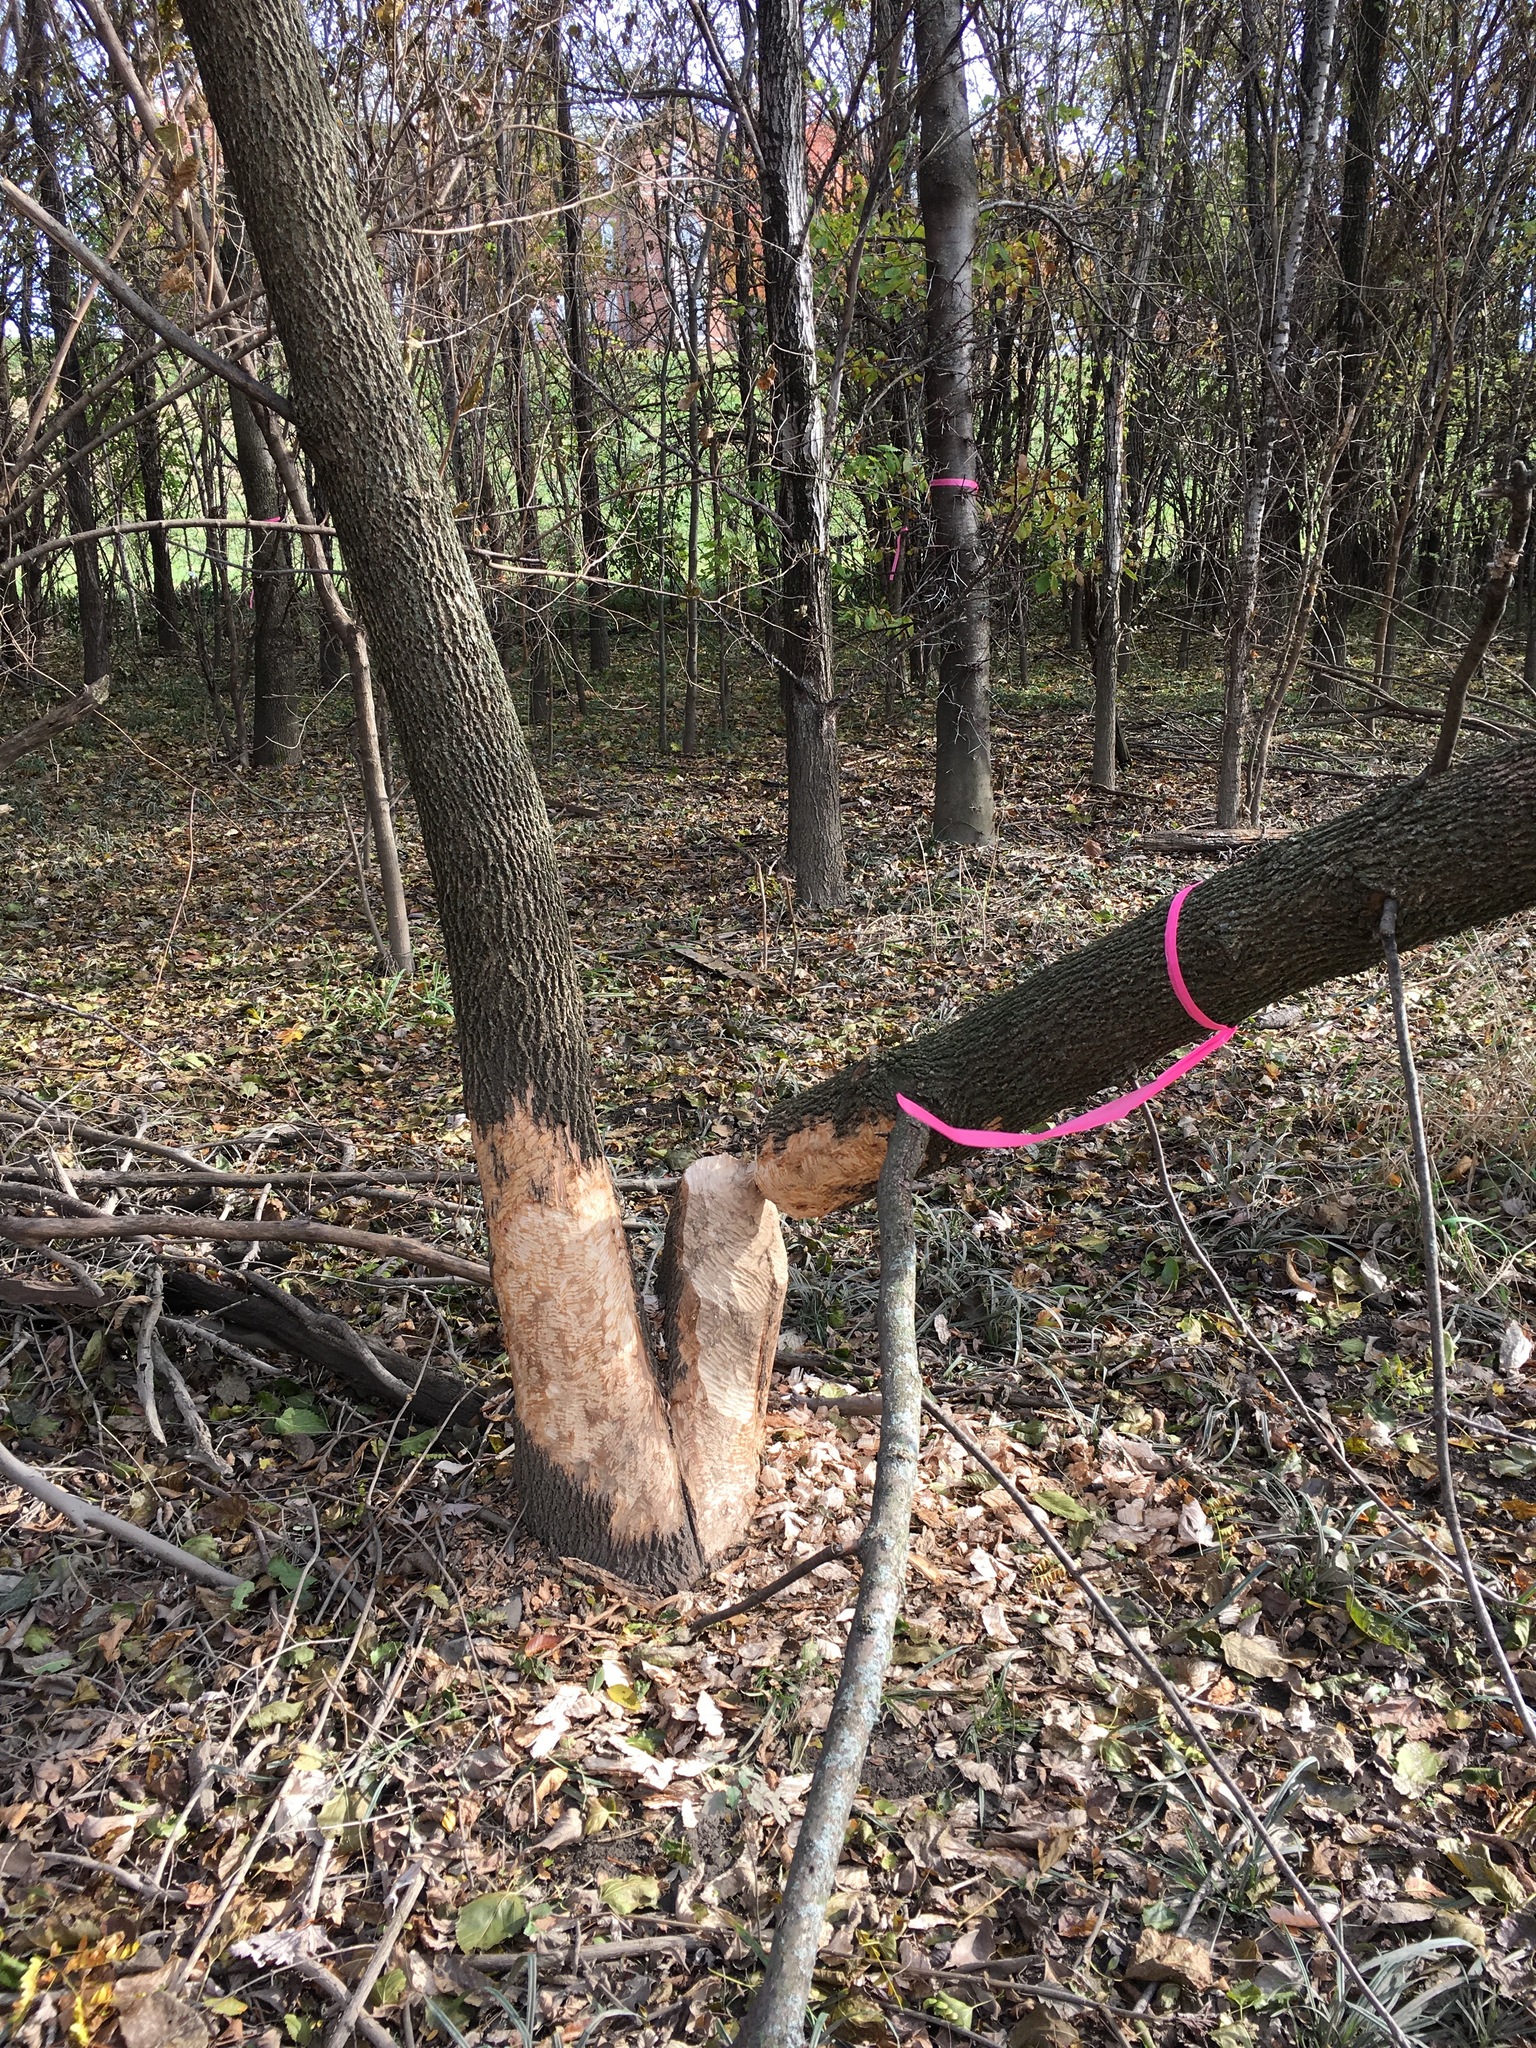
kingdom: Animalia
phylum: Chordata
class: Mammalia
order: Rodentia
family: Castoridae
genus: Castor
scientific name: Castor canadensis
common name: American beaver
